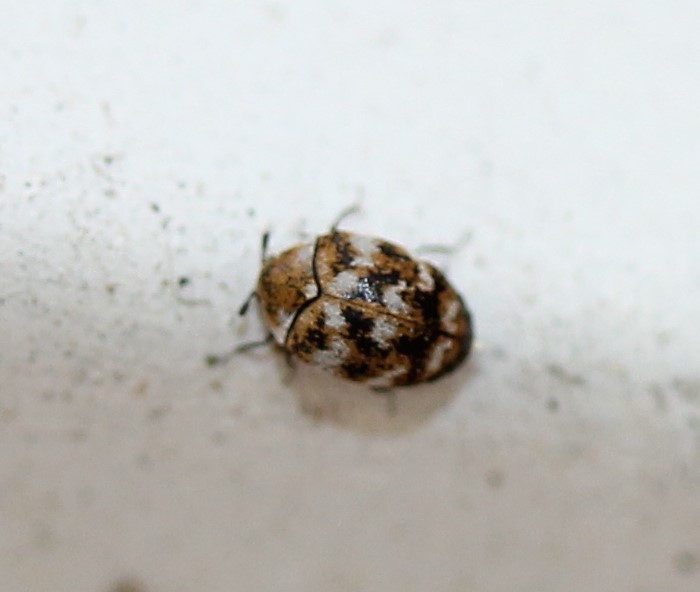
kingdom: Animalia
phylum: Arthropoda
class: Insecta
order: Coleoptera
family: Dermestidae
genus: Anthrenus
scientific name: Anthrenus verbasci
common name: Varied carpet beetle
